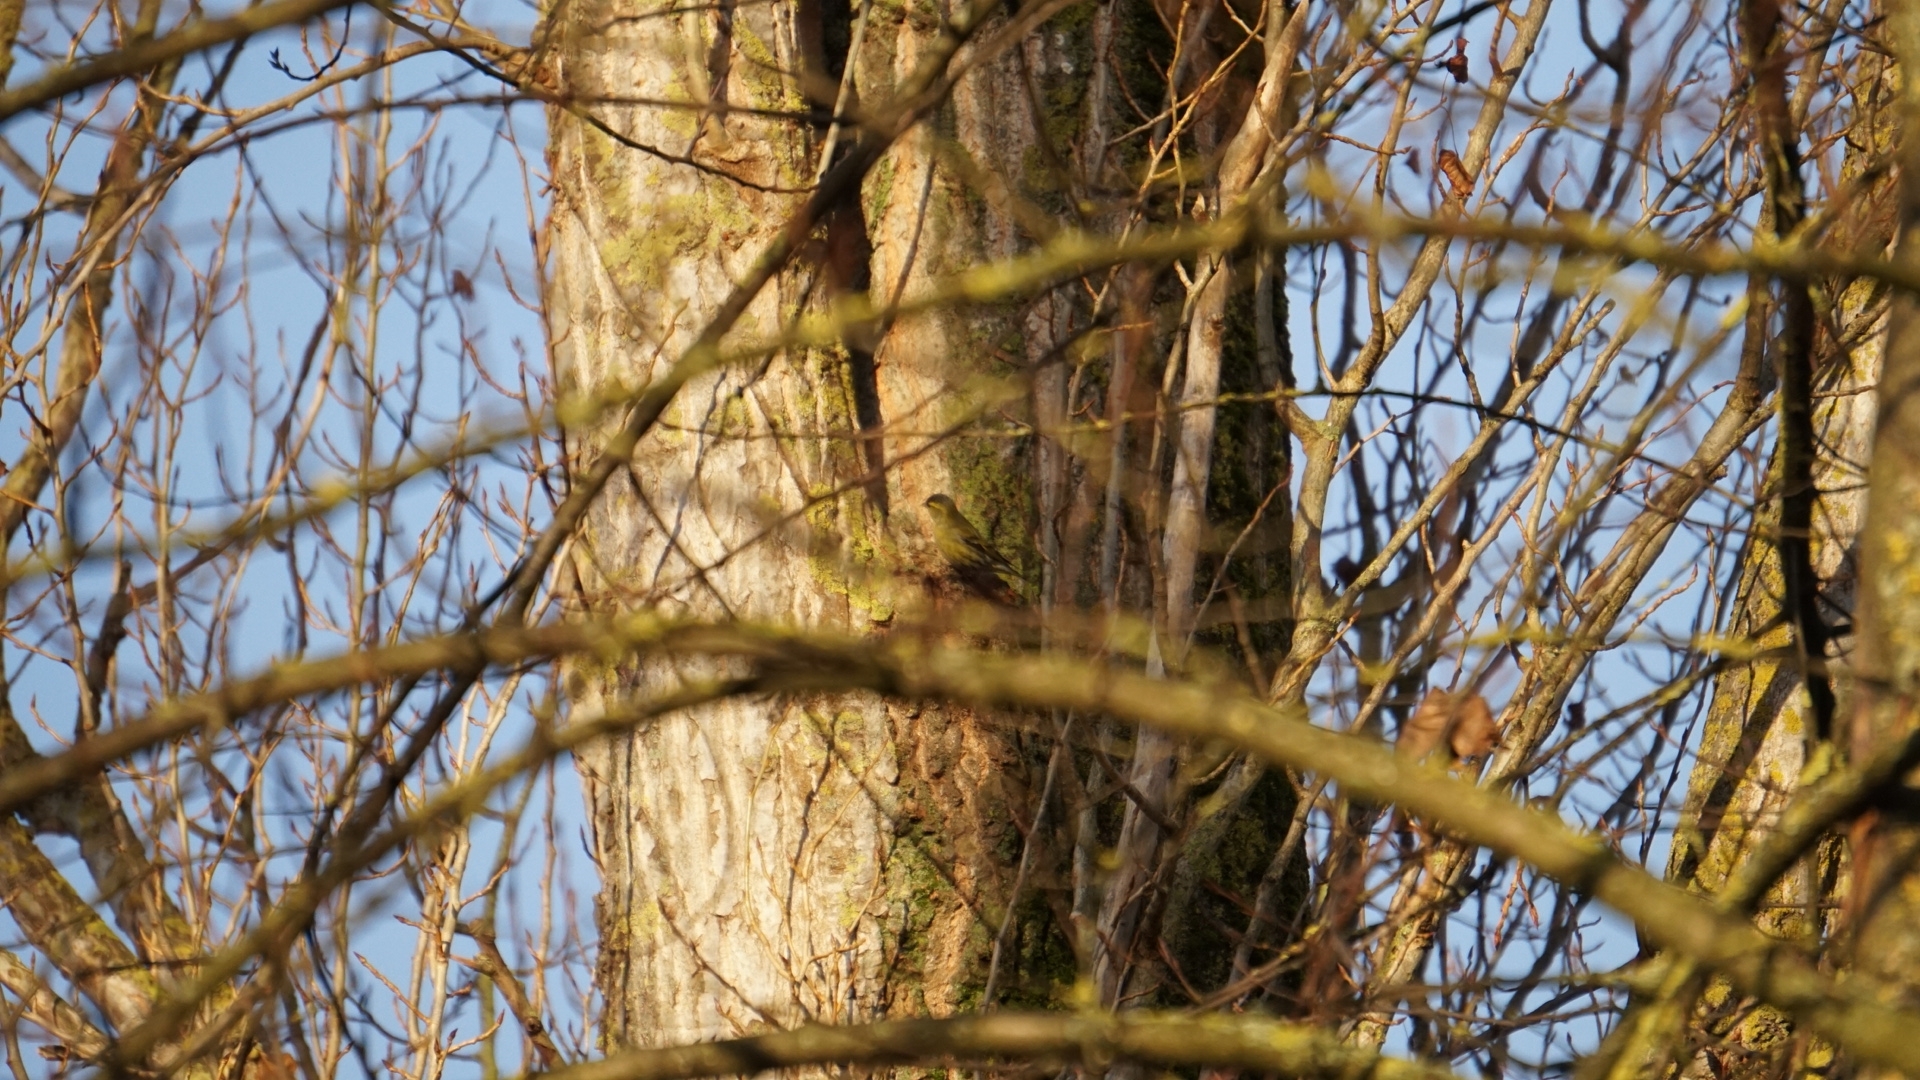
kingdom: Animalia
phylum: Chordata
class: Aves
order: Passeriformes
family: Fringillidae
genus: Spinus
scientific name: Spinus spinus
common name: Eurasian siskin
